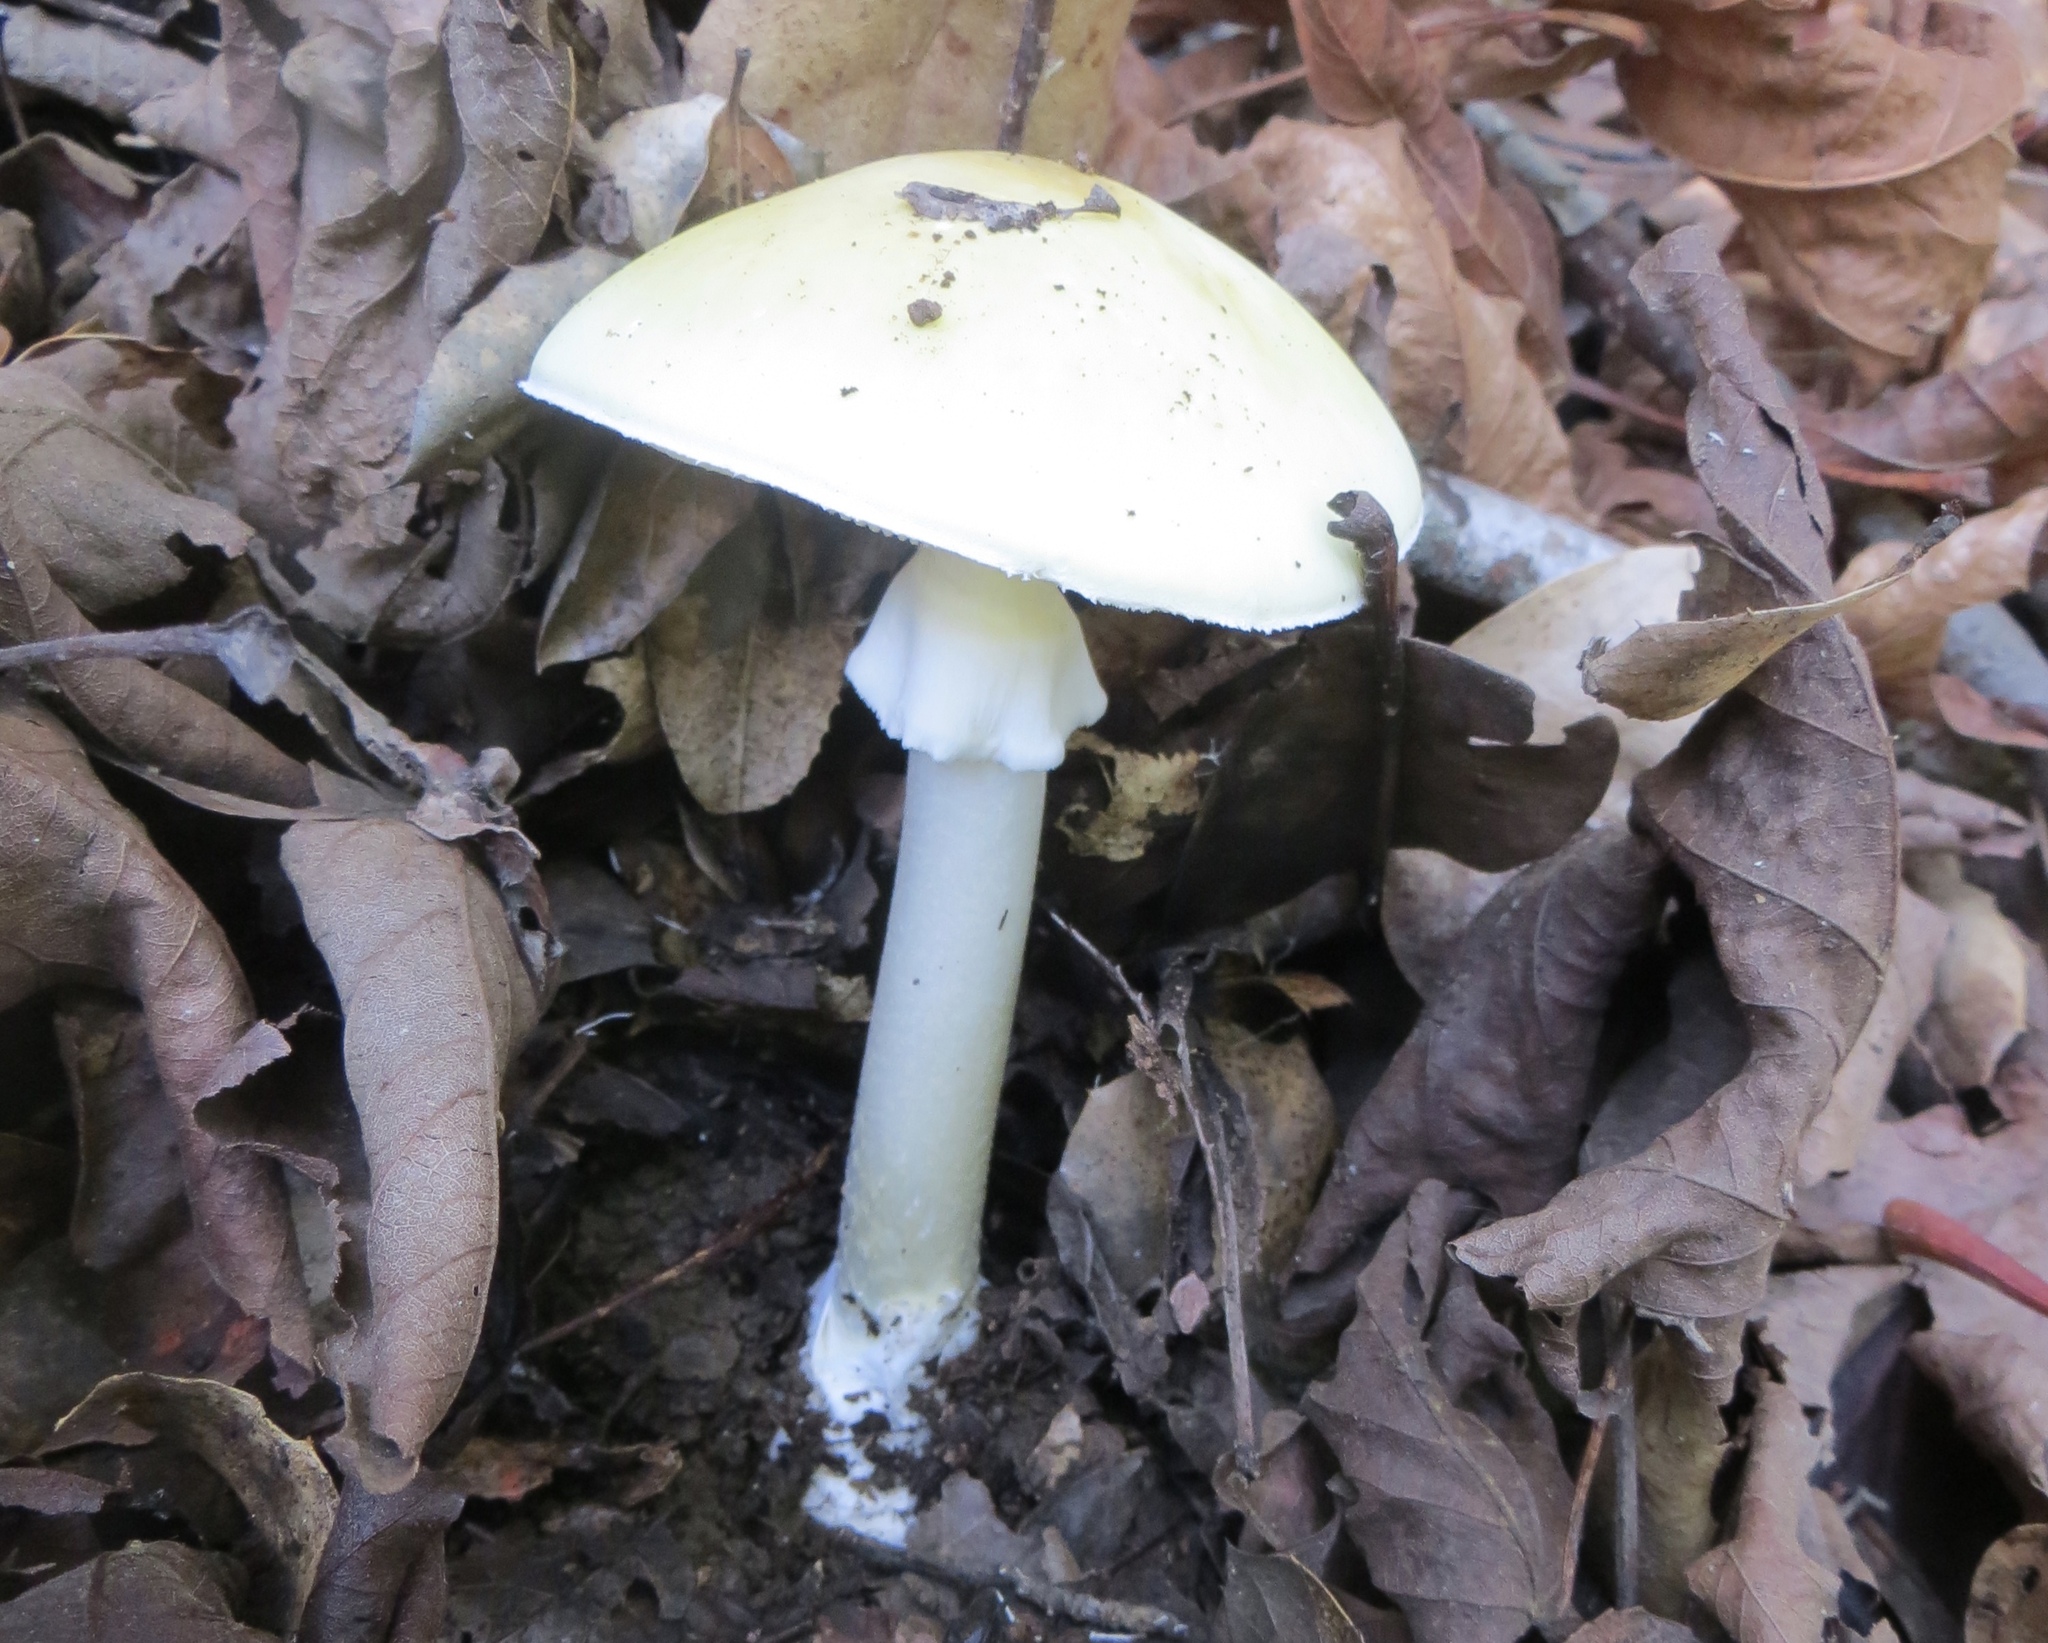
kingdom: Fungi
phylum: Basidiomycota
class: Agaricomycetes
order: Agaricales
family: Amanitaceae
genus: Amanita
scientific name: Amanita phalloides
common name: Death cap
